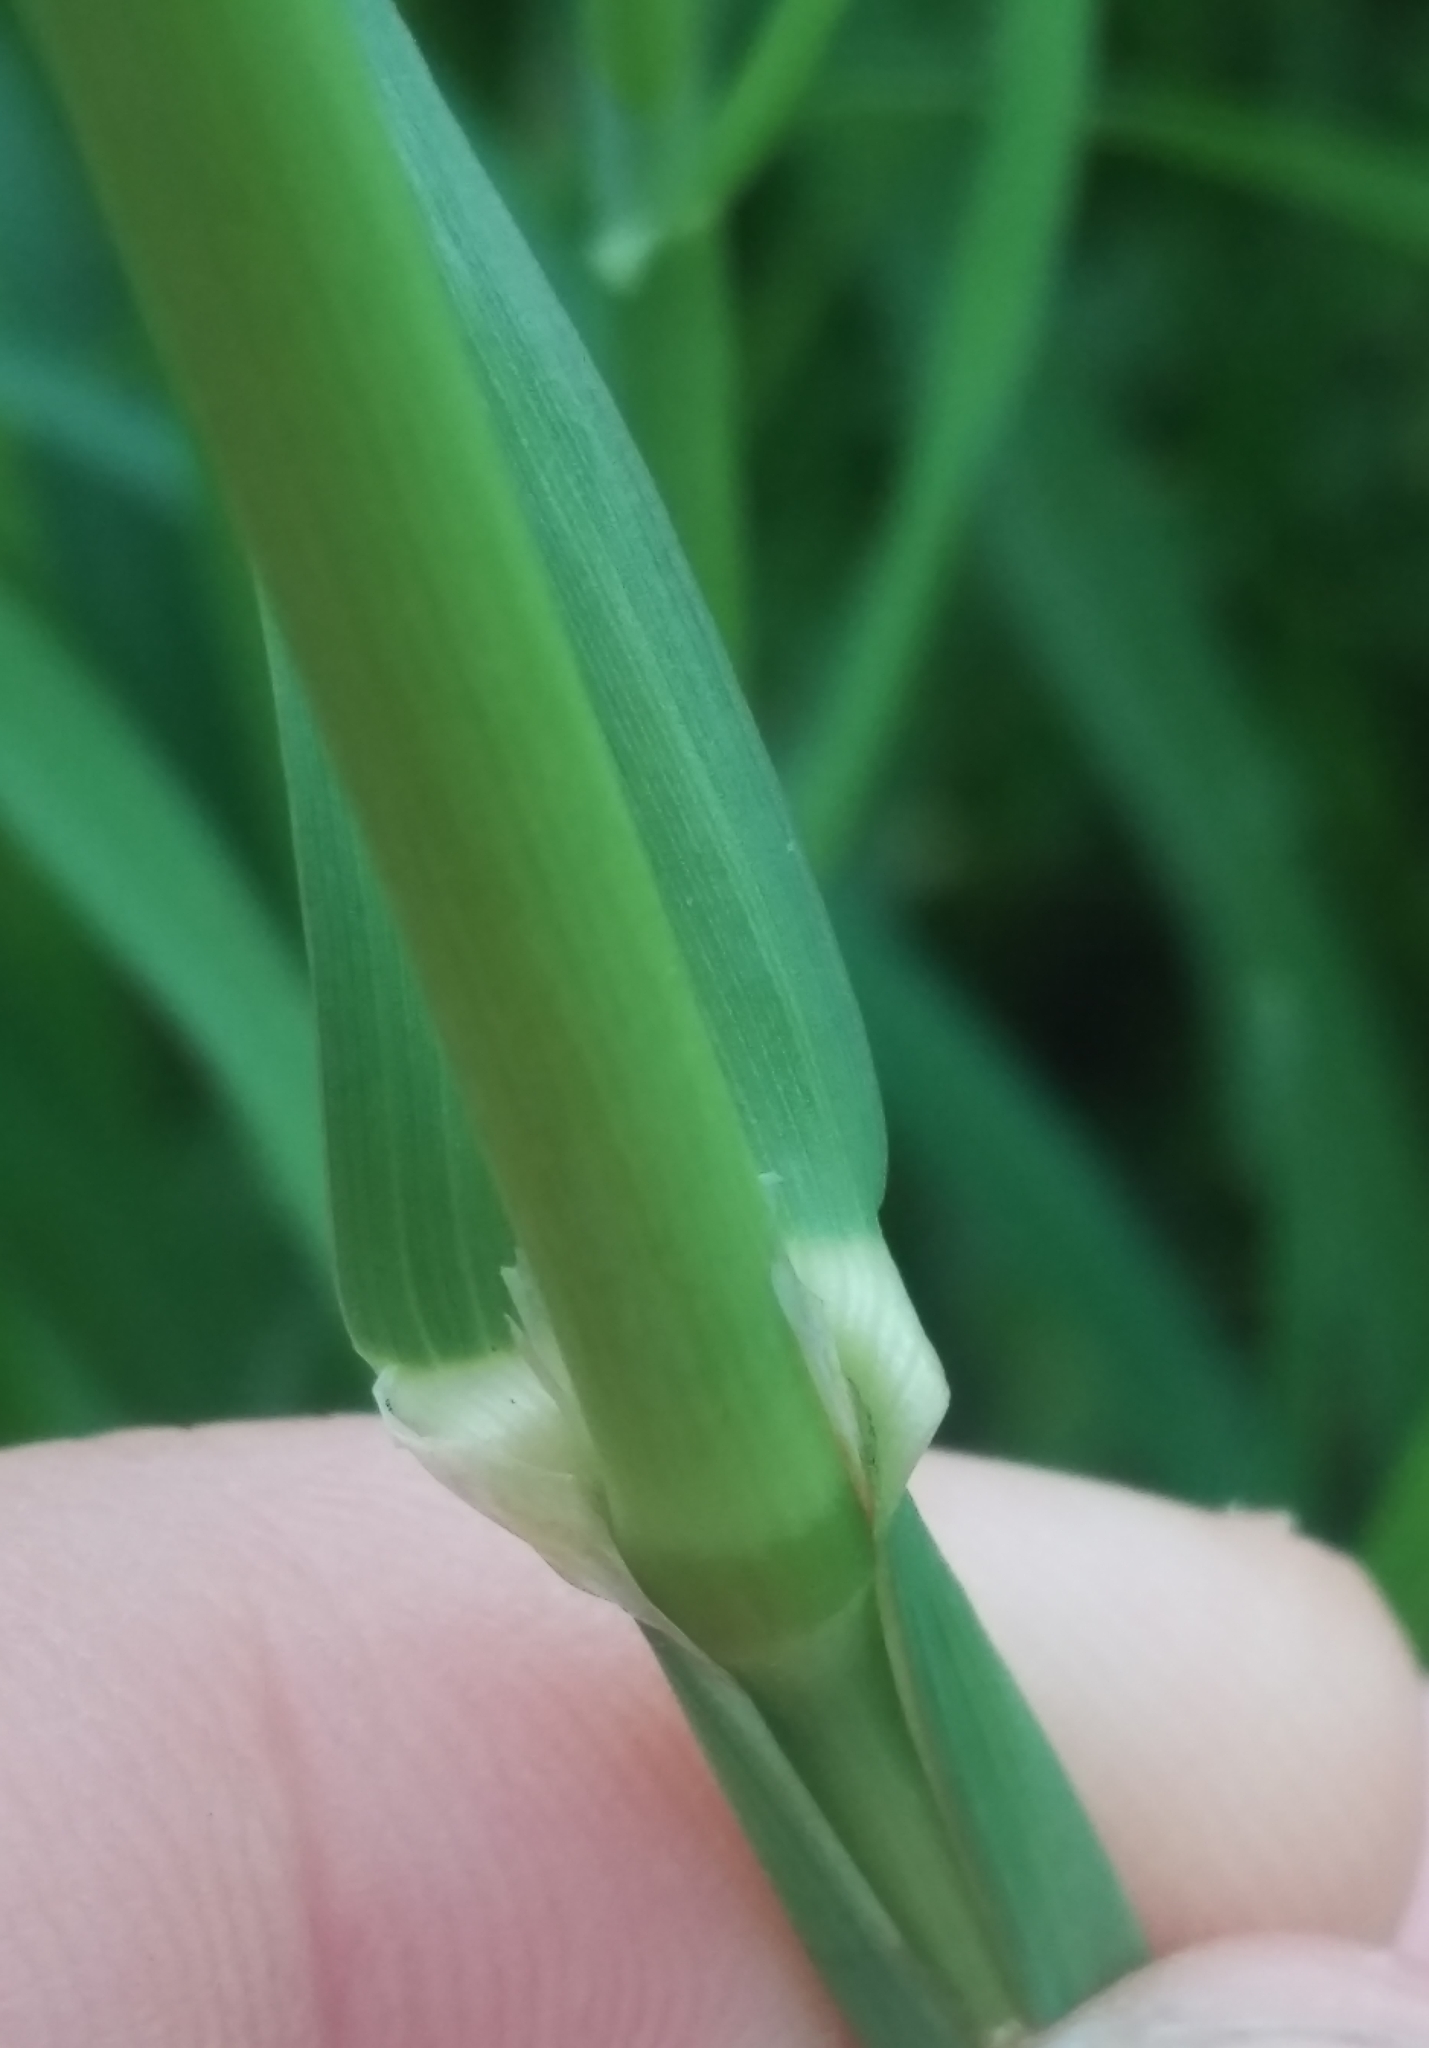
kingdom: Plantae
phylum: Tracheophyta
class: Liliopsida
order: Poales
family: Poaceae
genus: Dactylis
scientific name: Dactylis glomerata
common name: Orchardgrass
